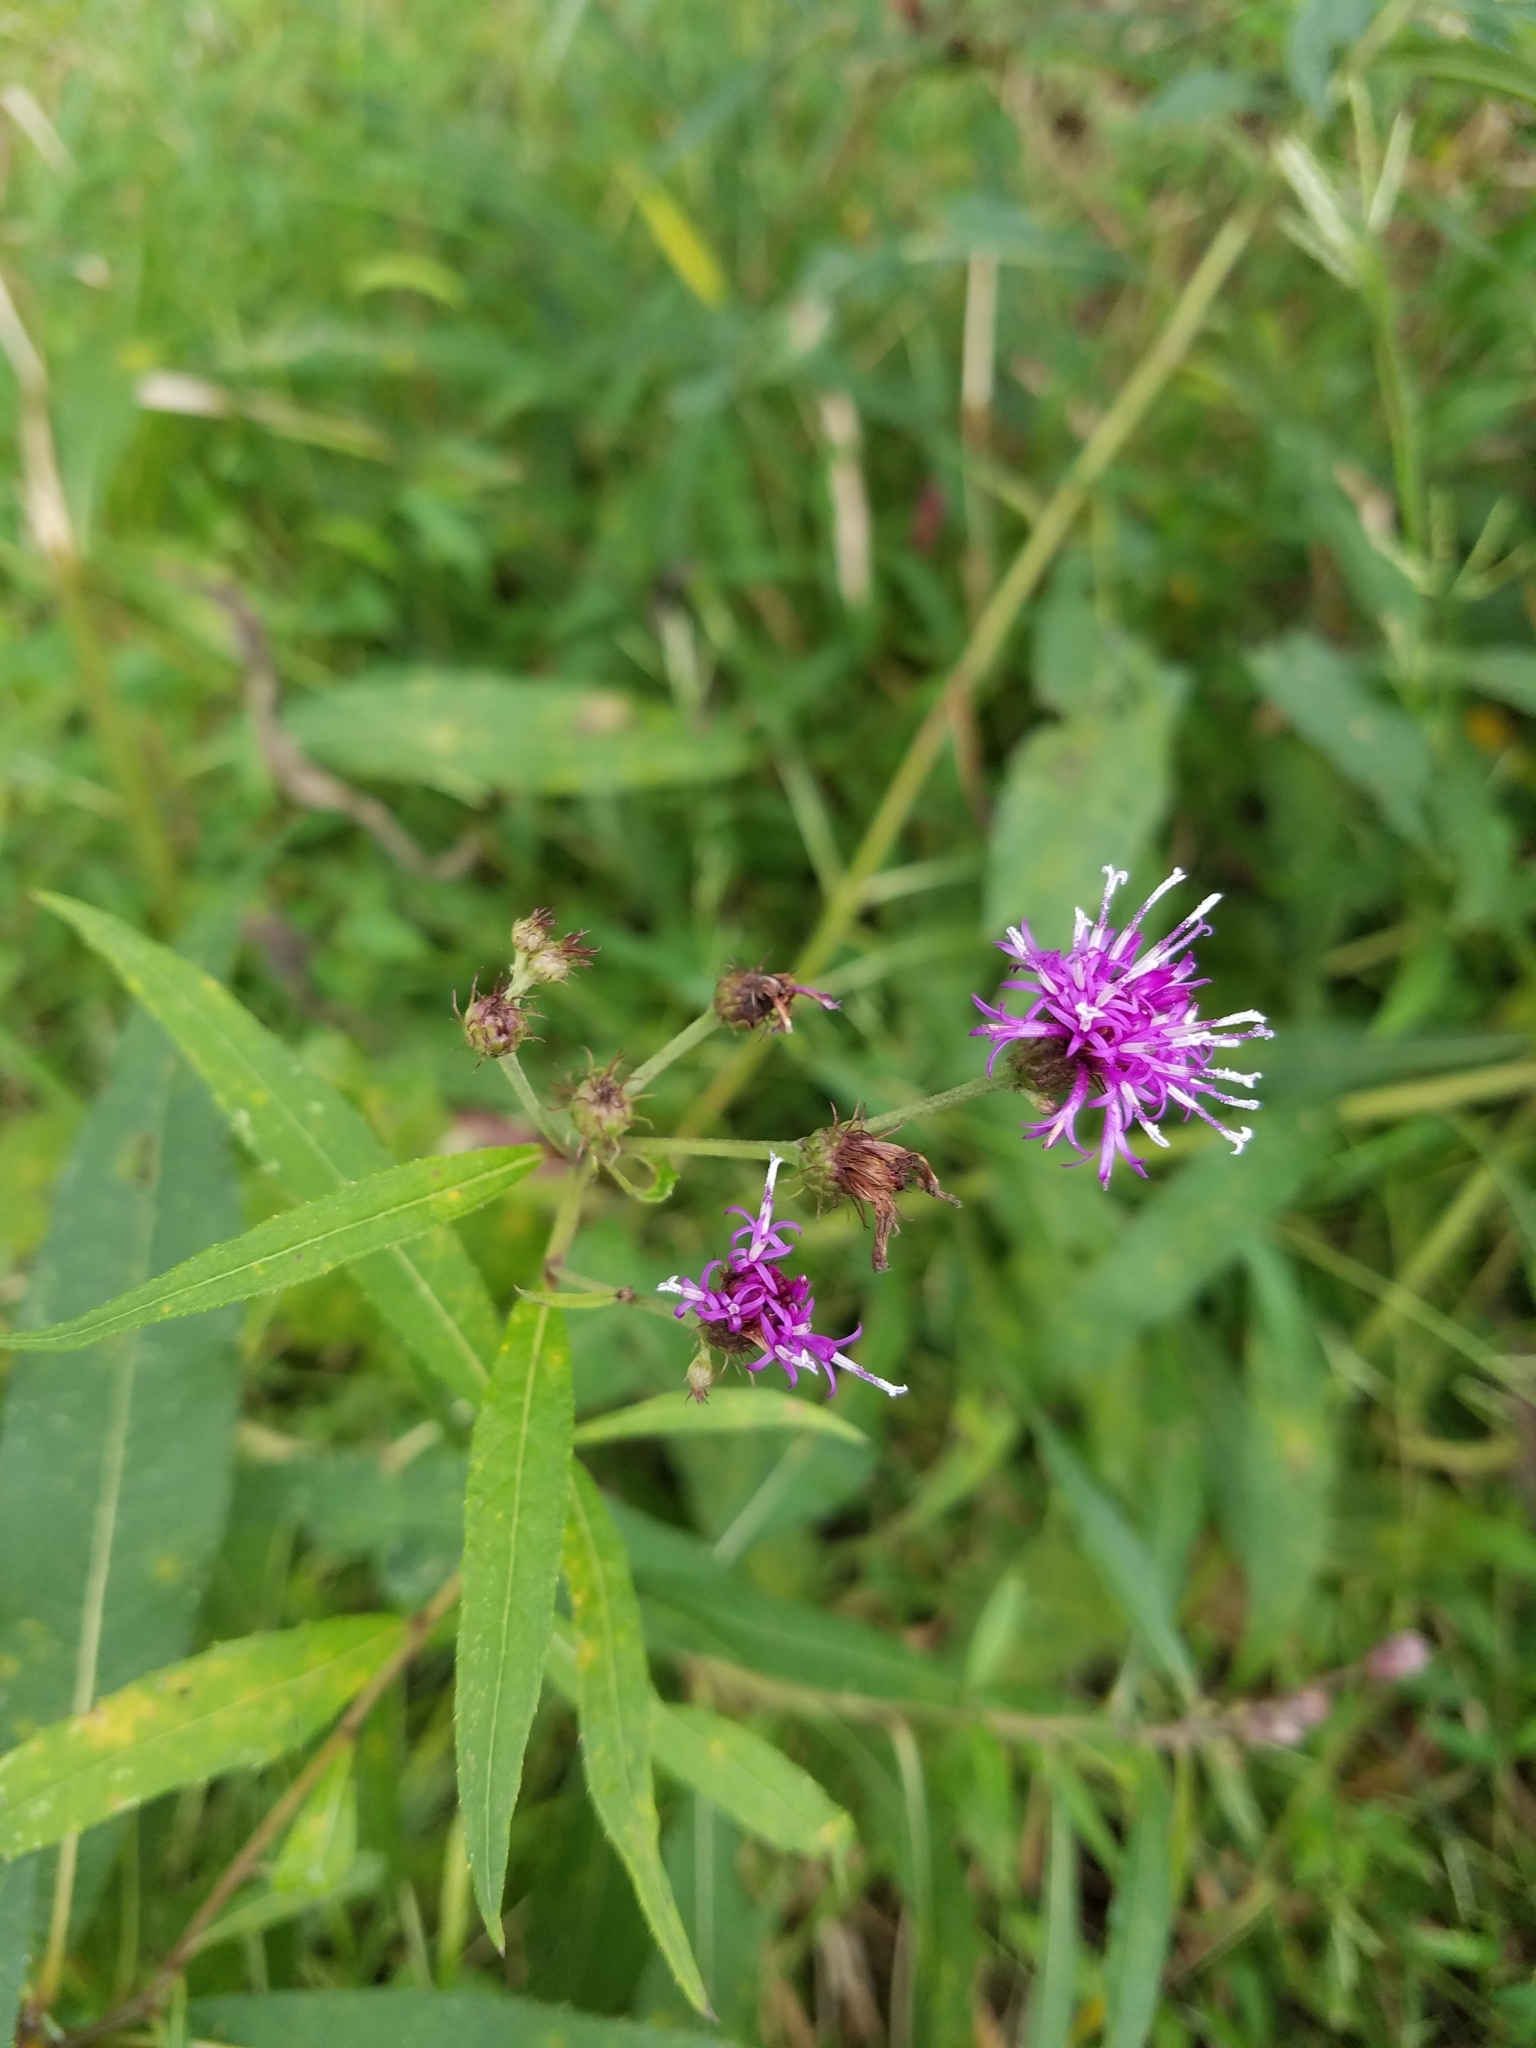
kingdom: Plantae
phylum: Tracheophyta
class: Magnoliopsida
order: Asterales
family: Asteraceae
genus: Vernonia
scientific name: Vernonia noveboracensis
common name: New york ironweed
